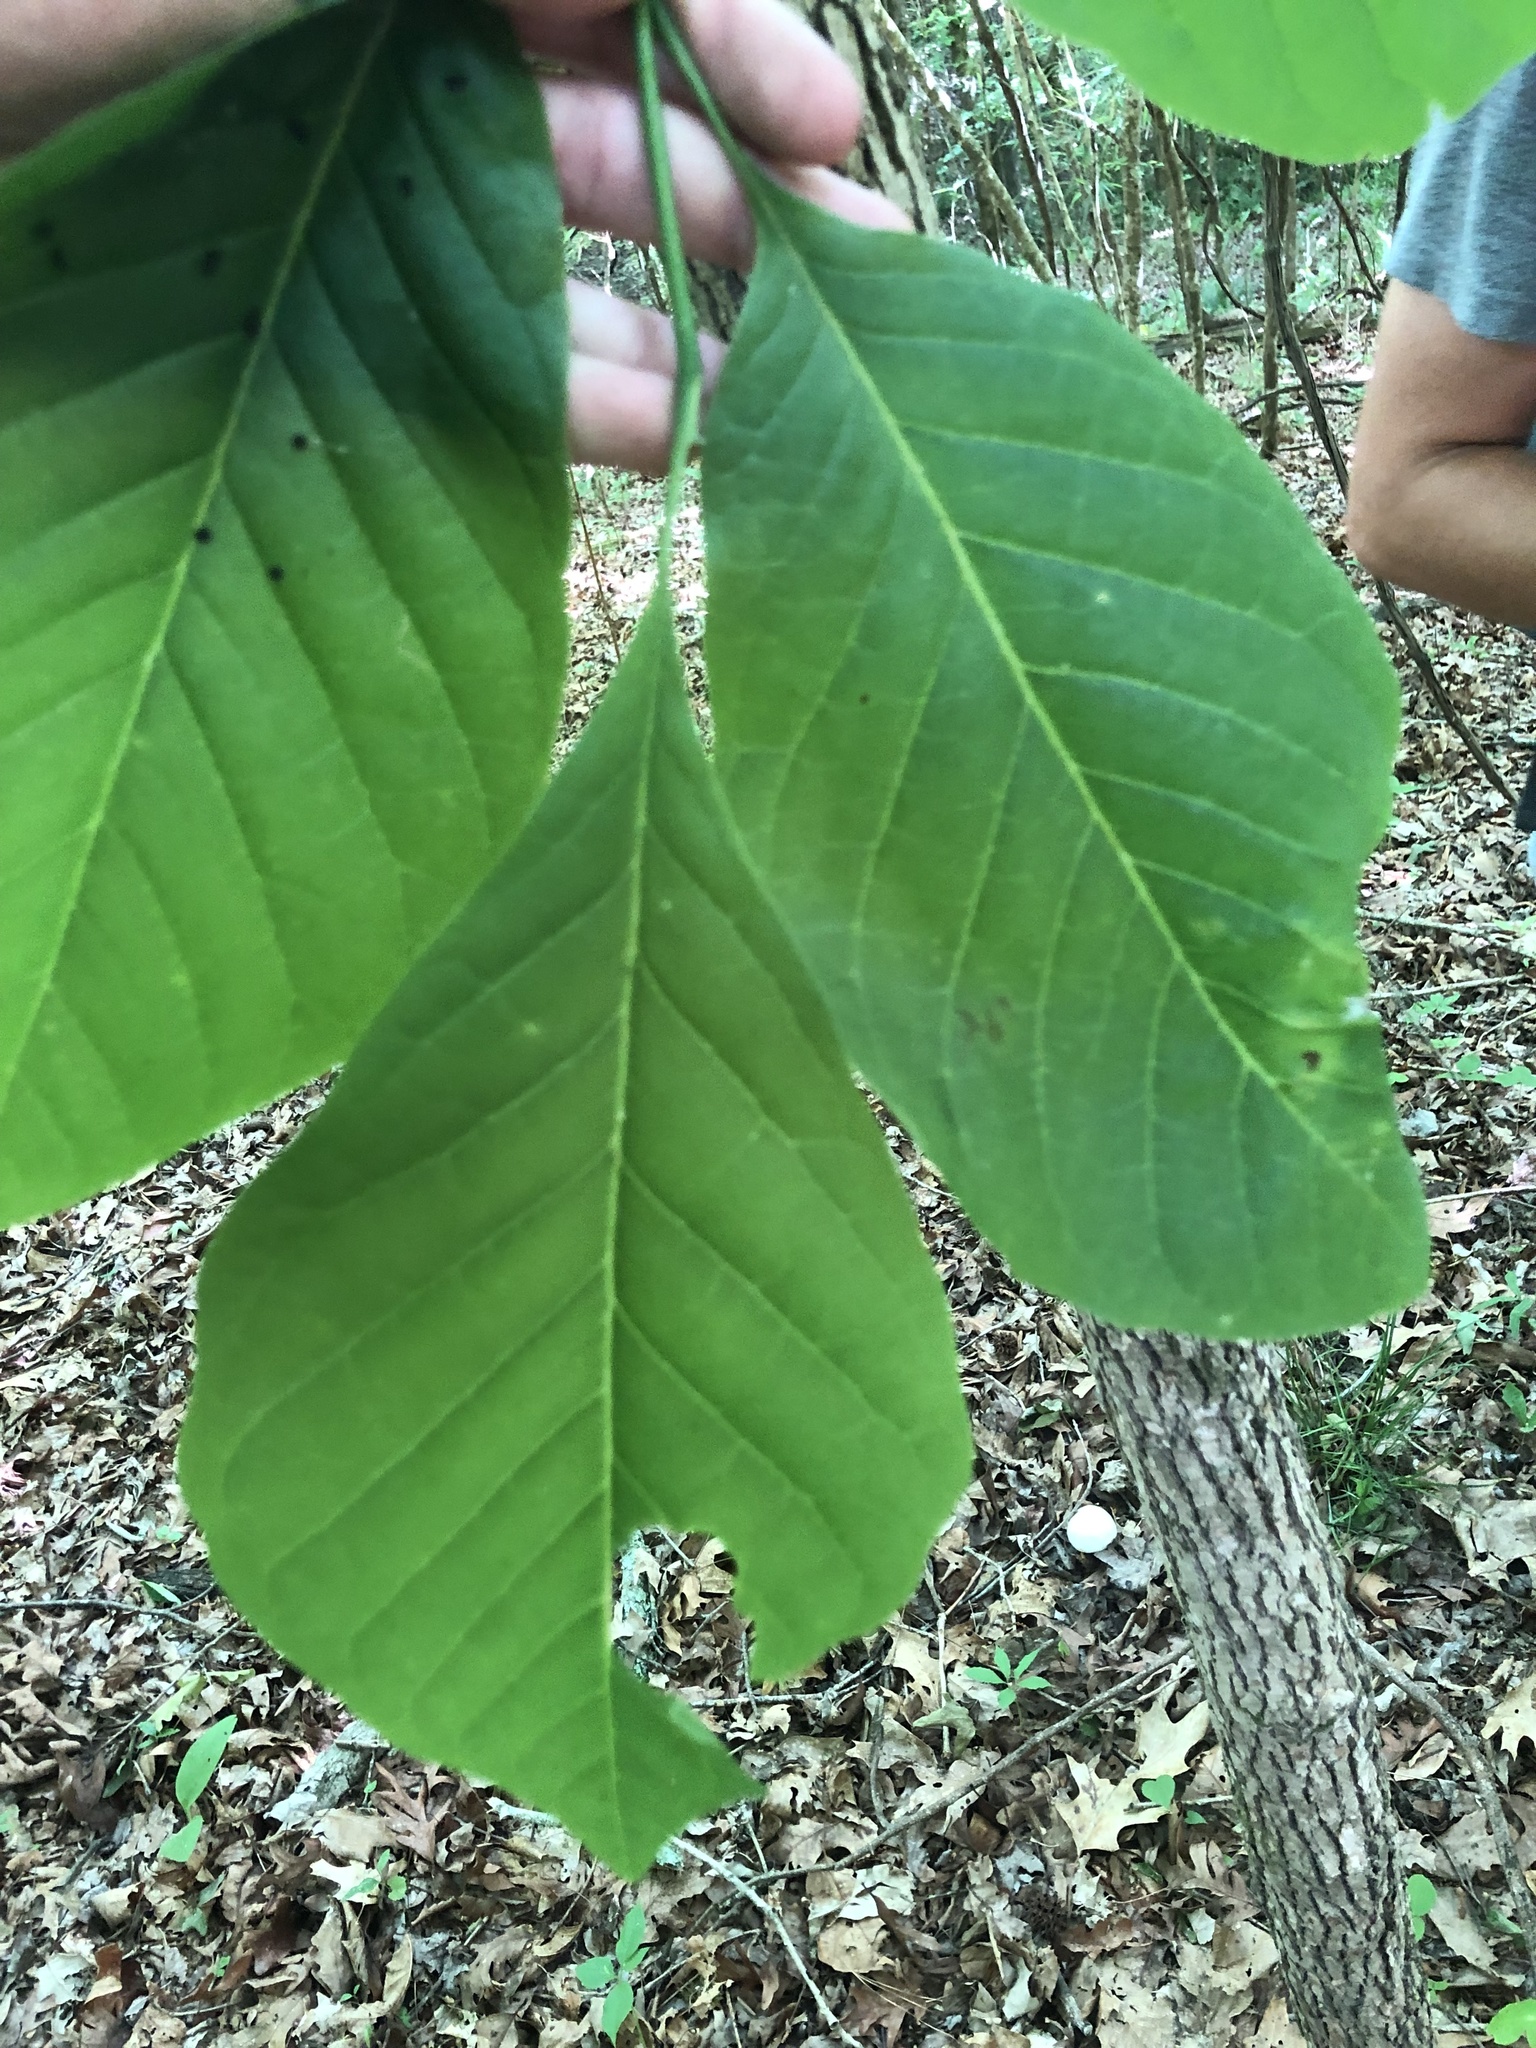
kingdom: Plantae
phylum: Tracheophyta
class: Magnoliopsida
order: Magnoliales
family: Magnoliaceae
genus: Magnolia
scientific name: Magnolia acuminata
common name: Cucumber magnolia
